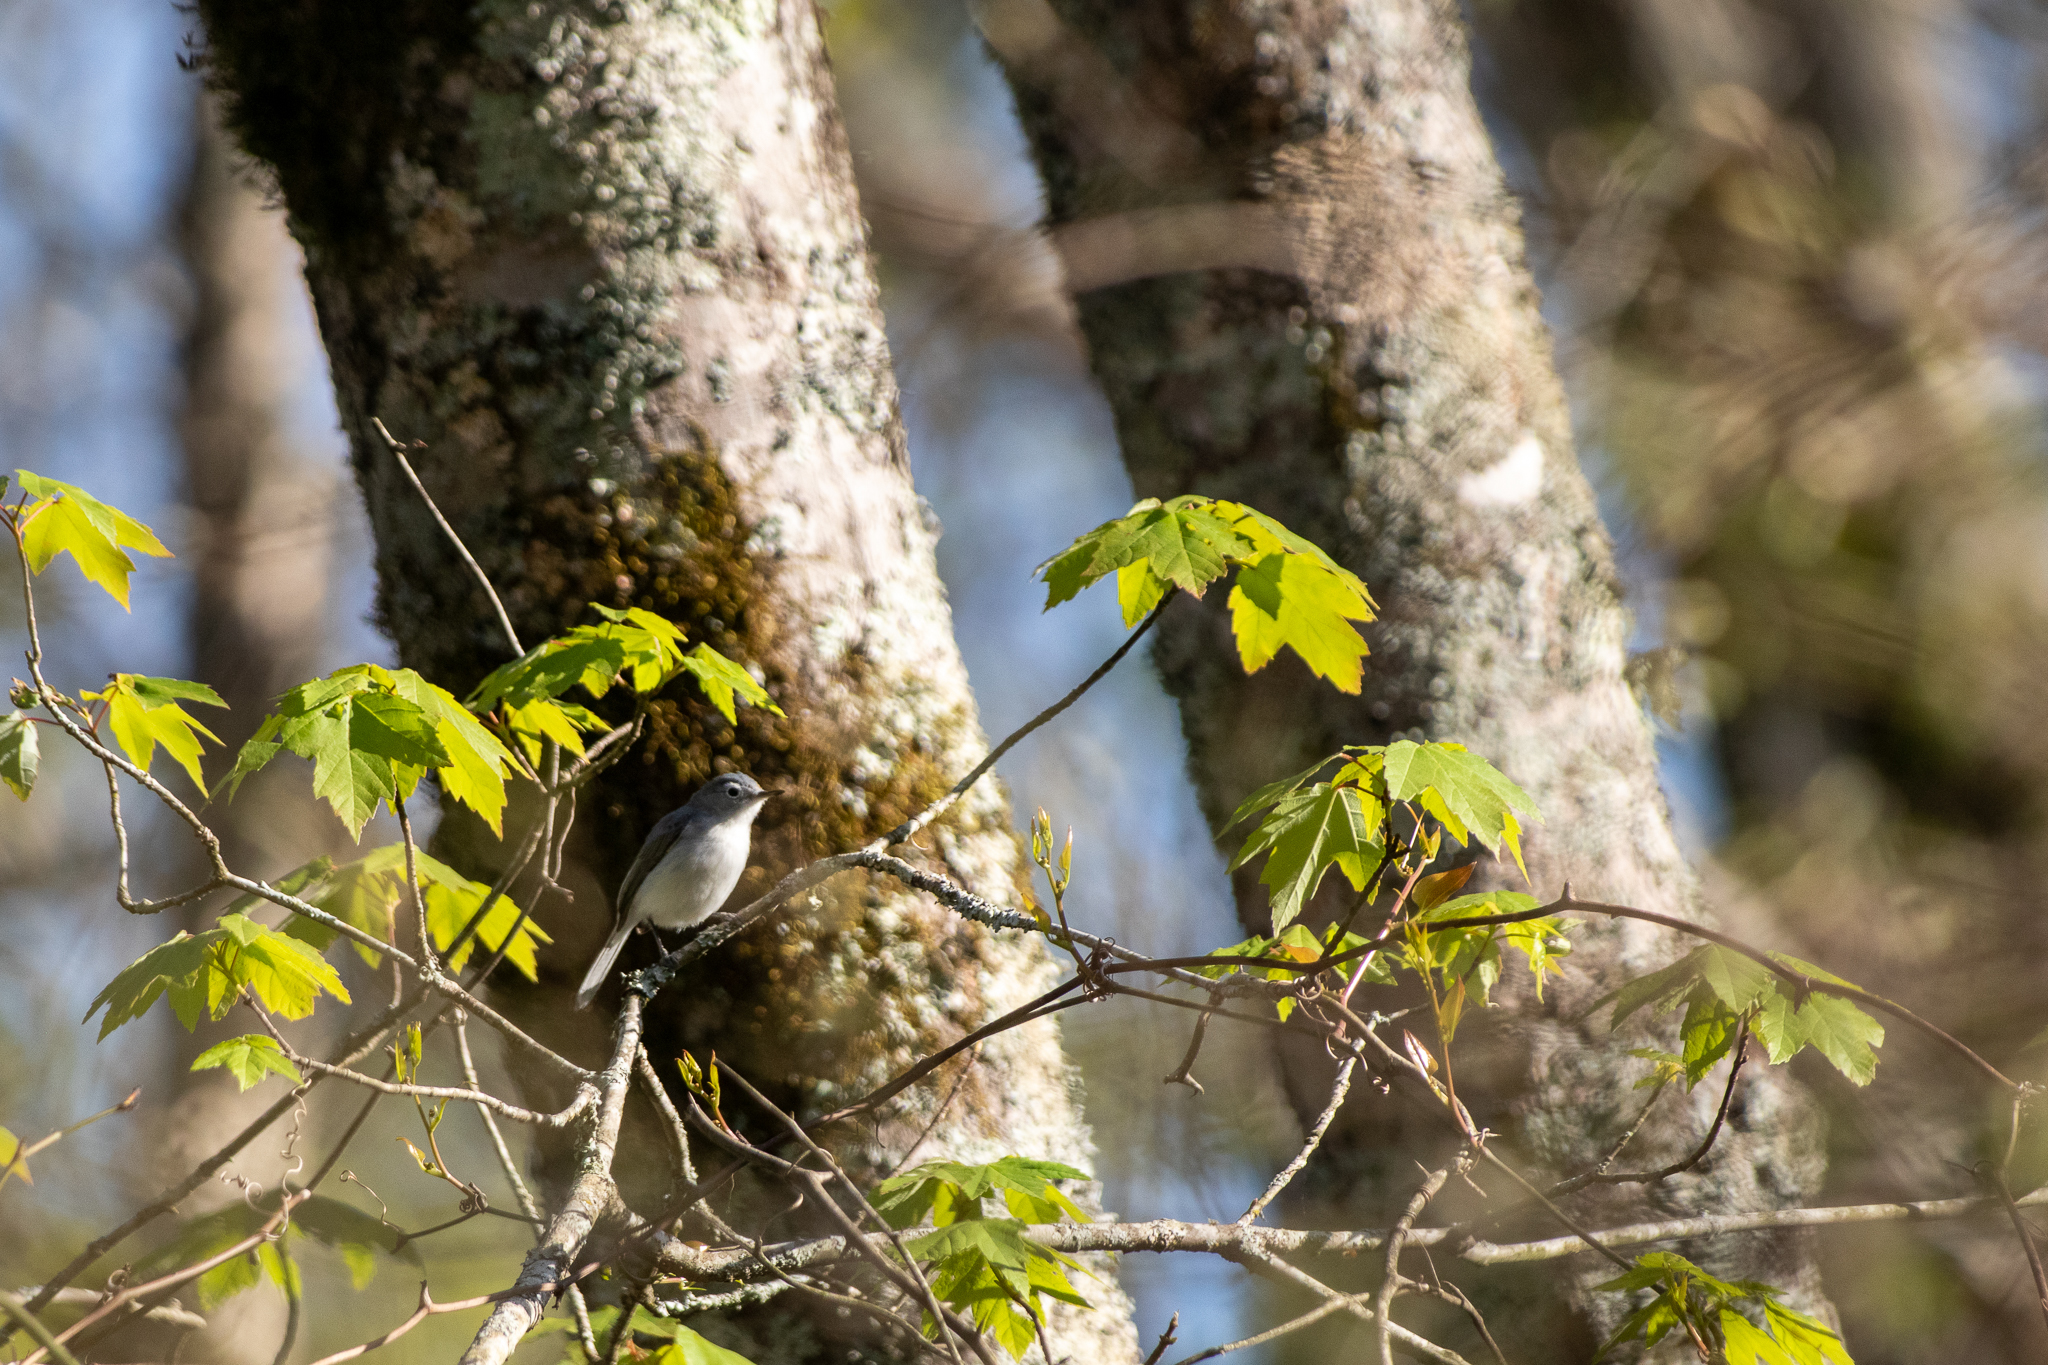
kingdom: Animalia
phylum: Chordata
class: Aves
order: Passeriformes
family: Polioptilidae
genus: Polioptila
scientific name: Polioptila caerulea
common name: Blue-gray gnatcatcher
